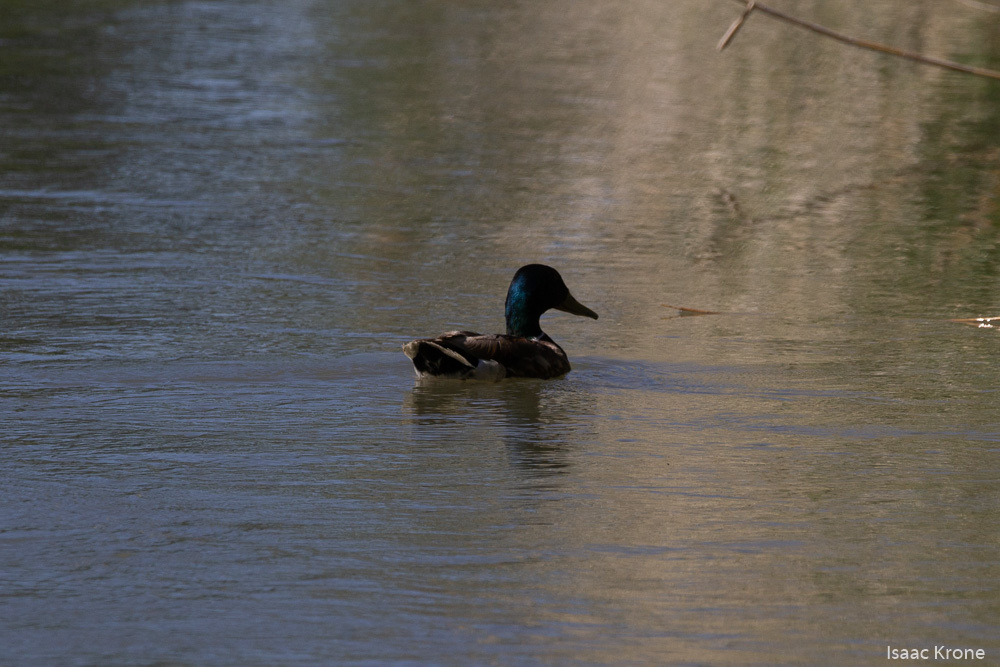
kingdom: Animalia
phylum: Chordata
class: Aves
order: Anseriformes
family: Anatidae
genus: Anas
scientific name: Anas platyrhynchos
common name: Mallard
